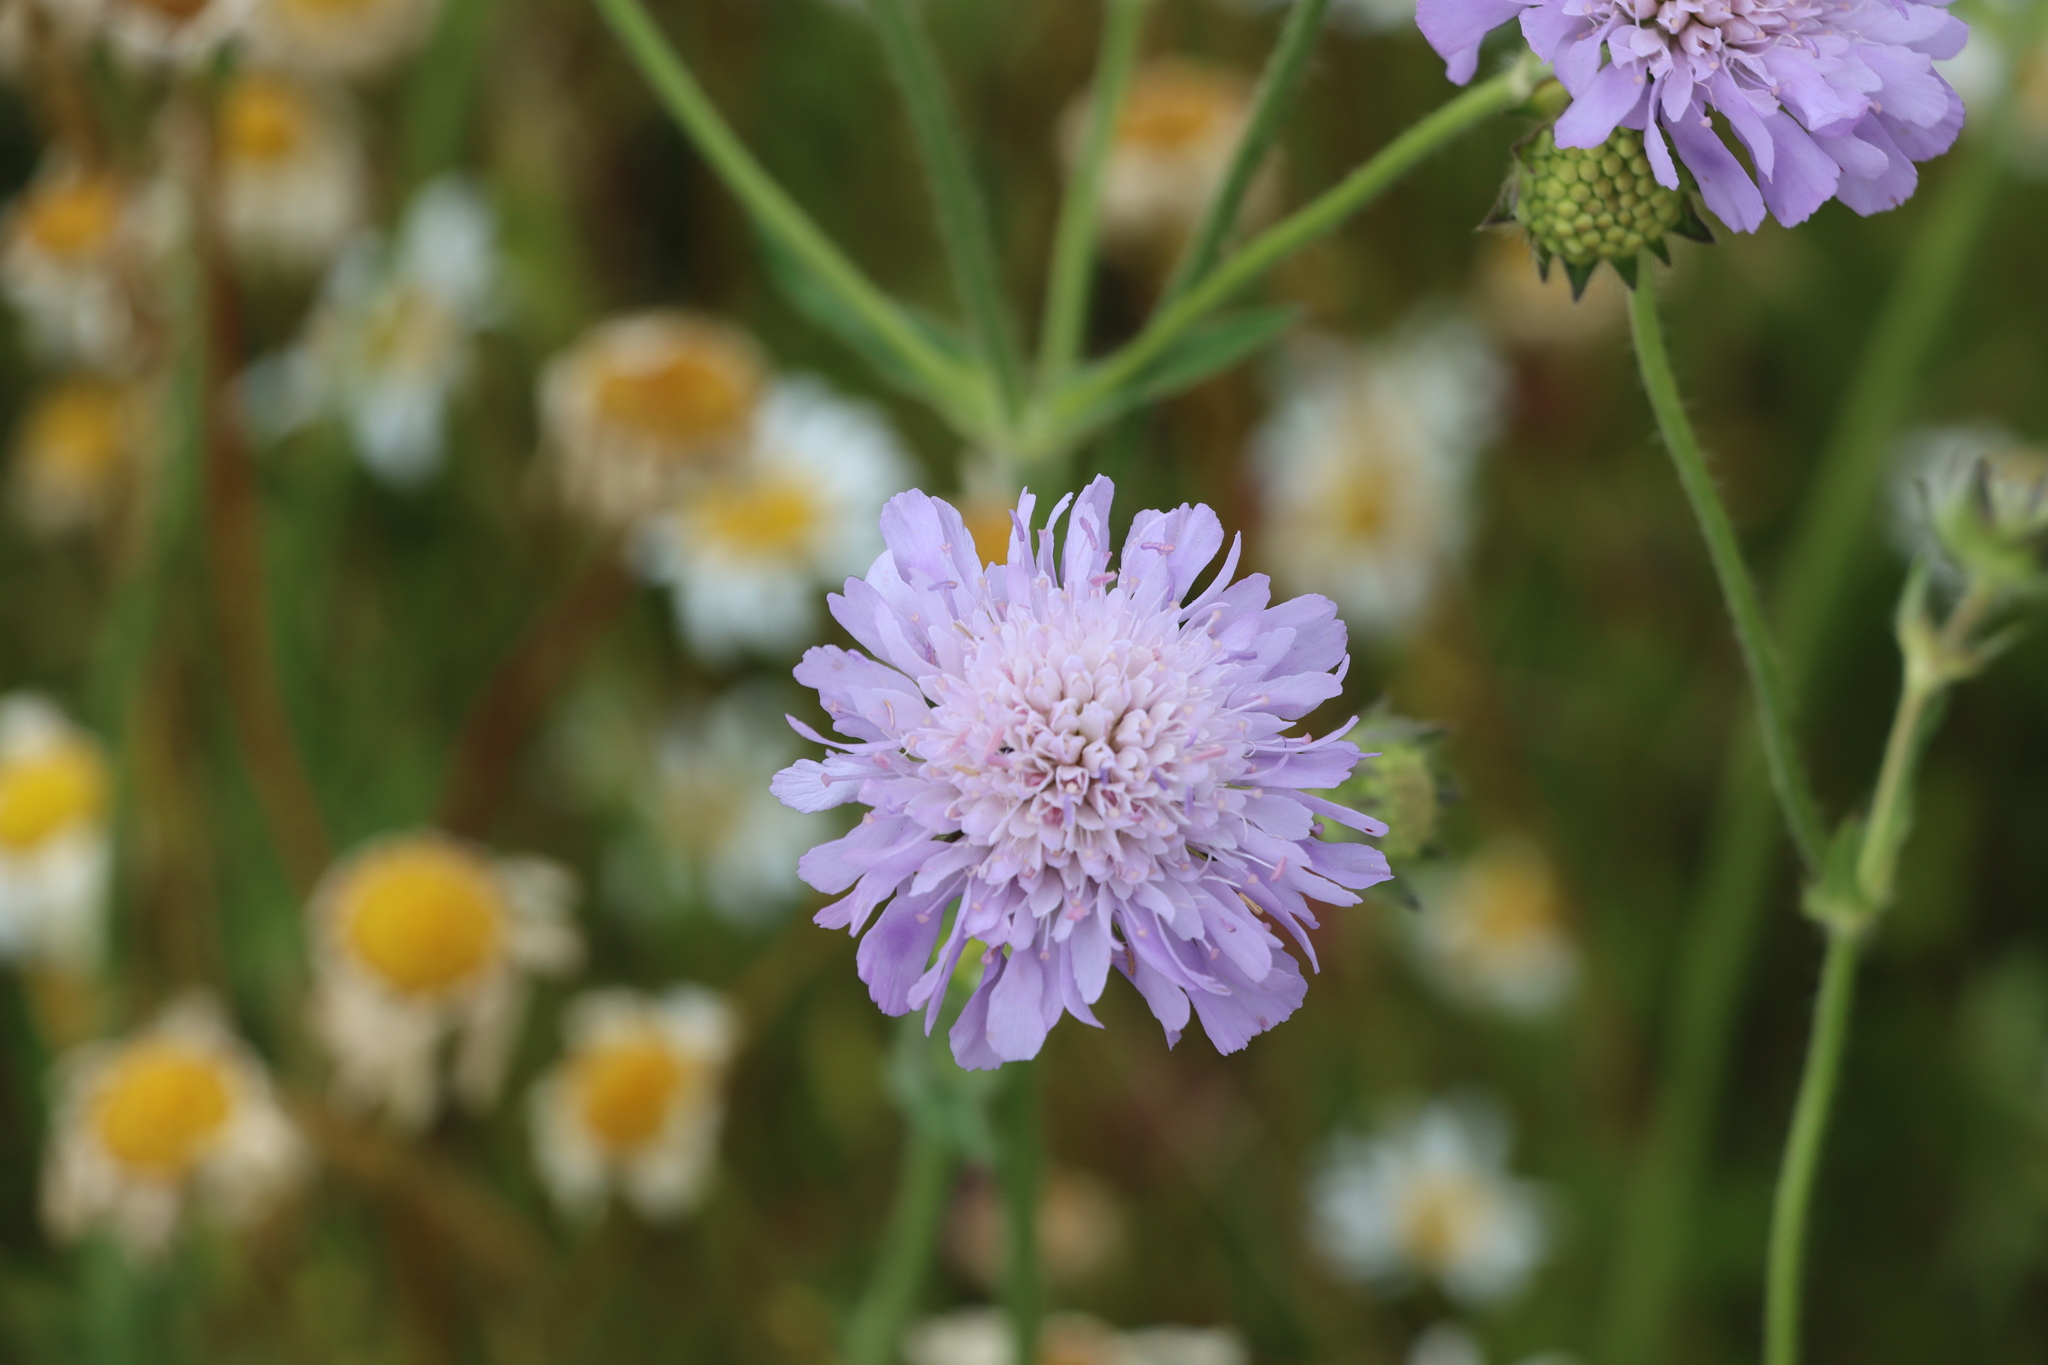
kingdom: Plantae
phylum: Tracheophyta
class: Magnoliopsida
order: Dipsacales
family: Caprifoliaceae
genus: Knautia
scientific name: Knautia arvensis
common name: Field scabiosa
